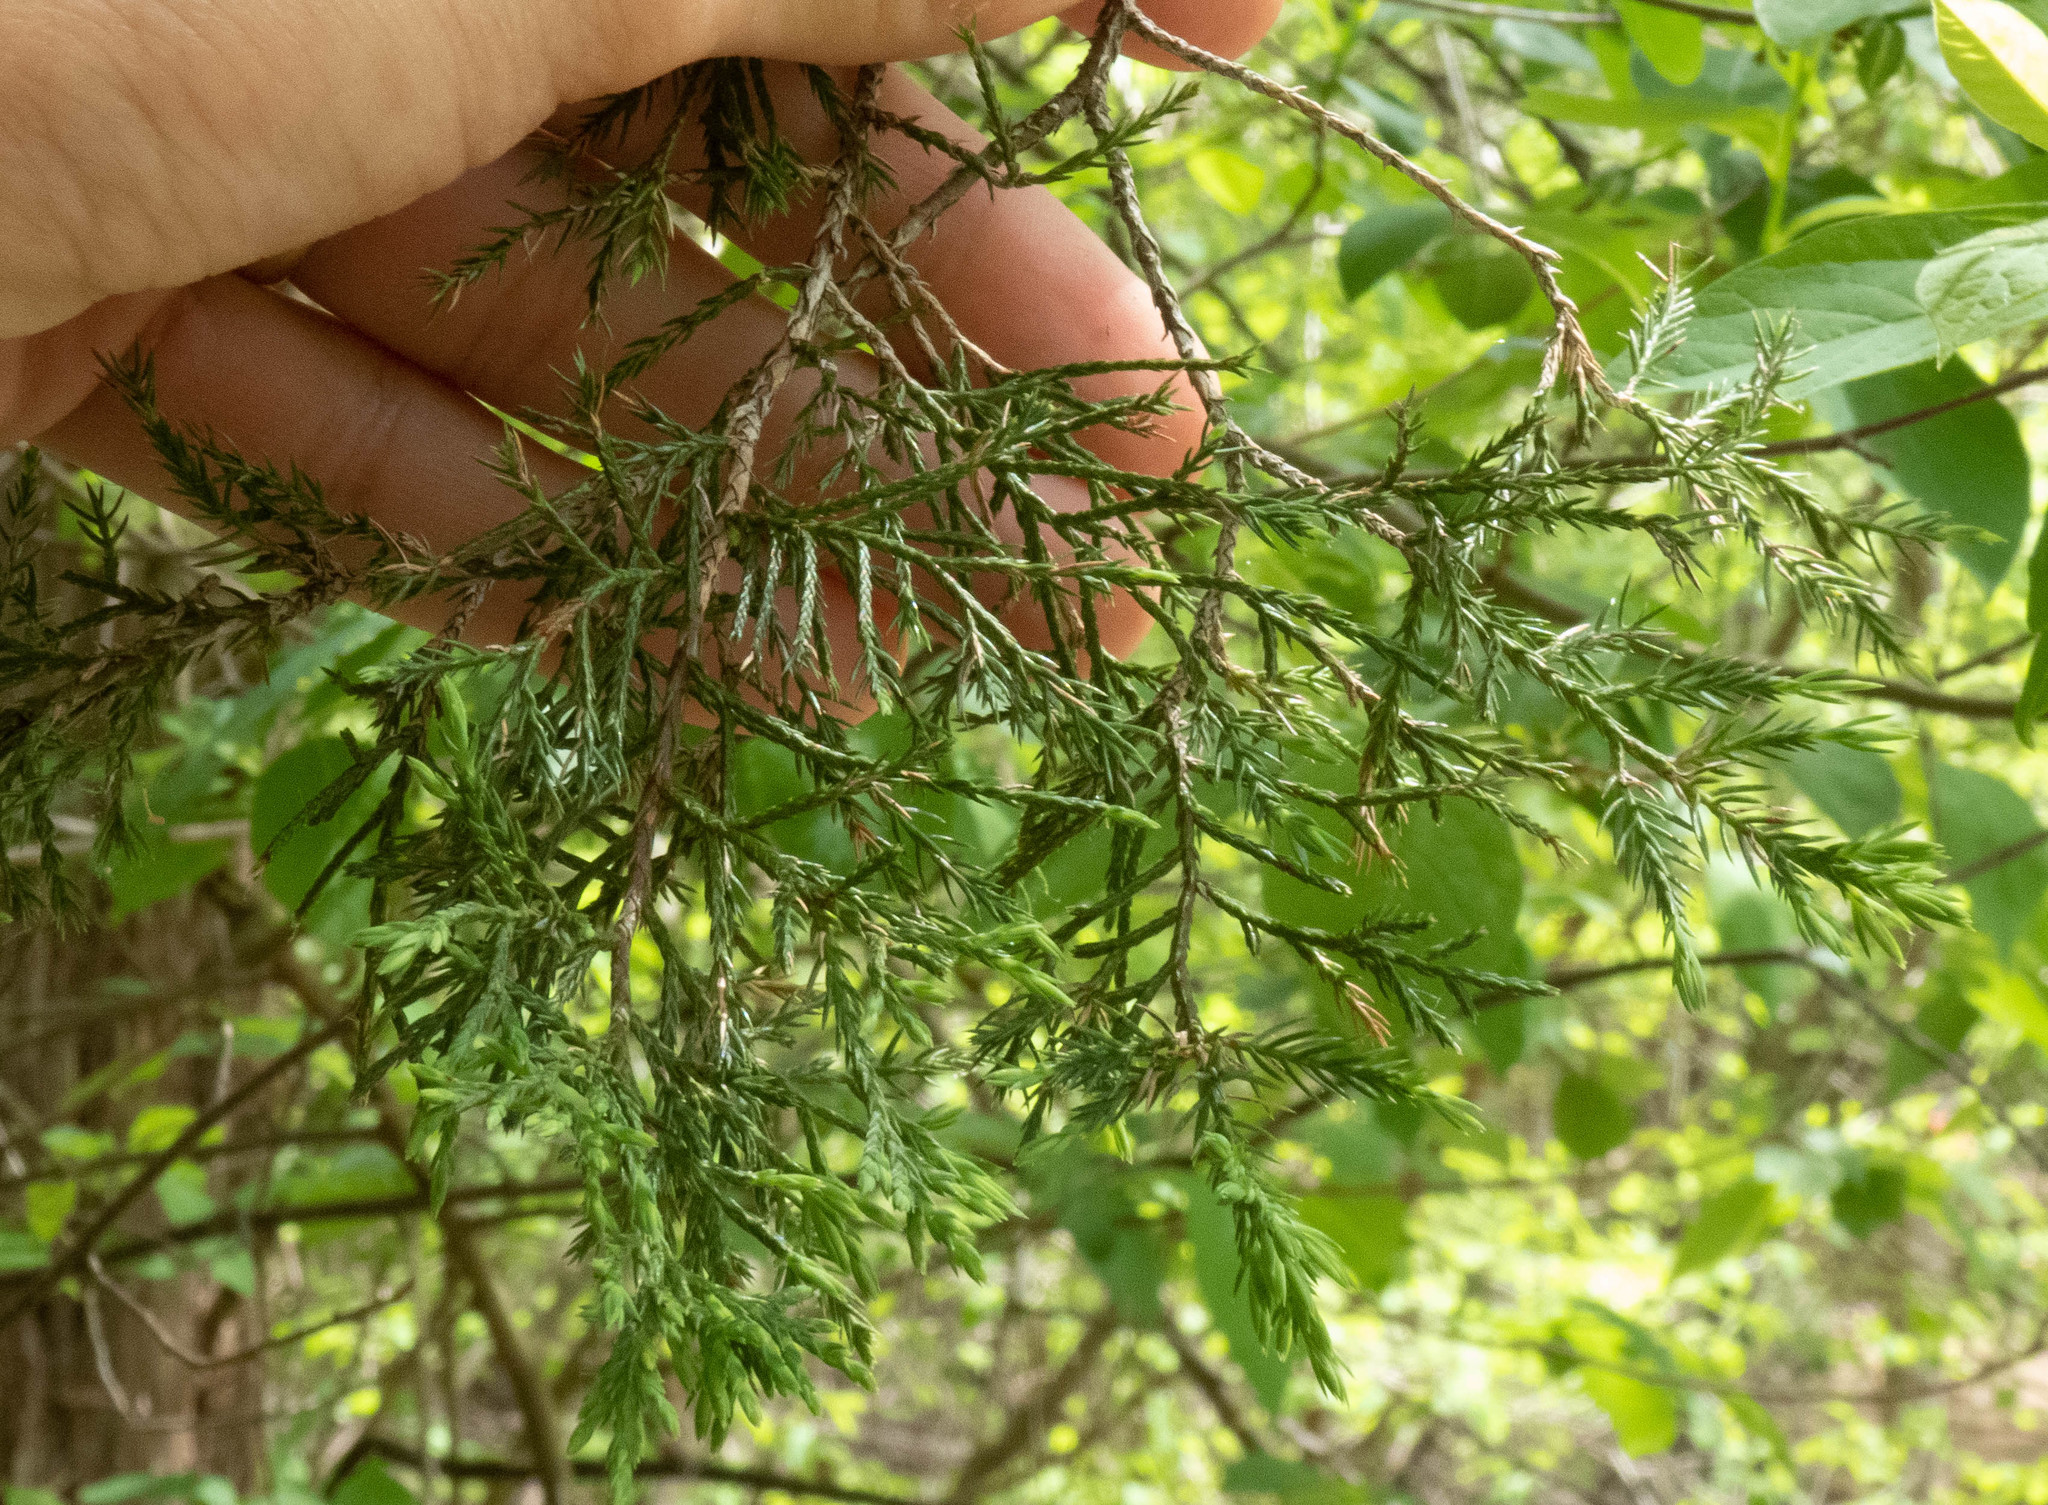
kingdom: Plantae
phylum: Tracheophyta
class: Pinopsida
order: Pinales
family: Cupressaceae
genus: Juniperus
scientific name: Juniperus virginiana
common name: Red juniper
